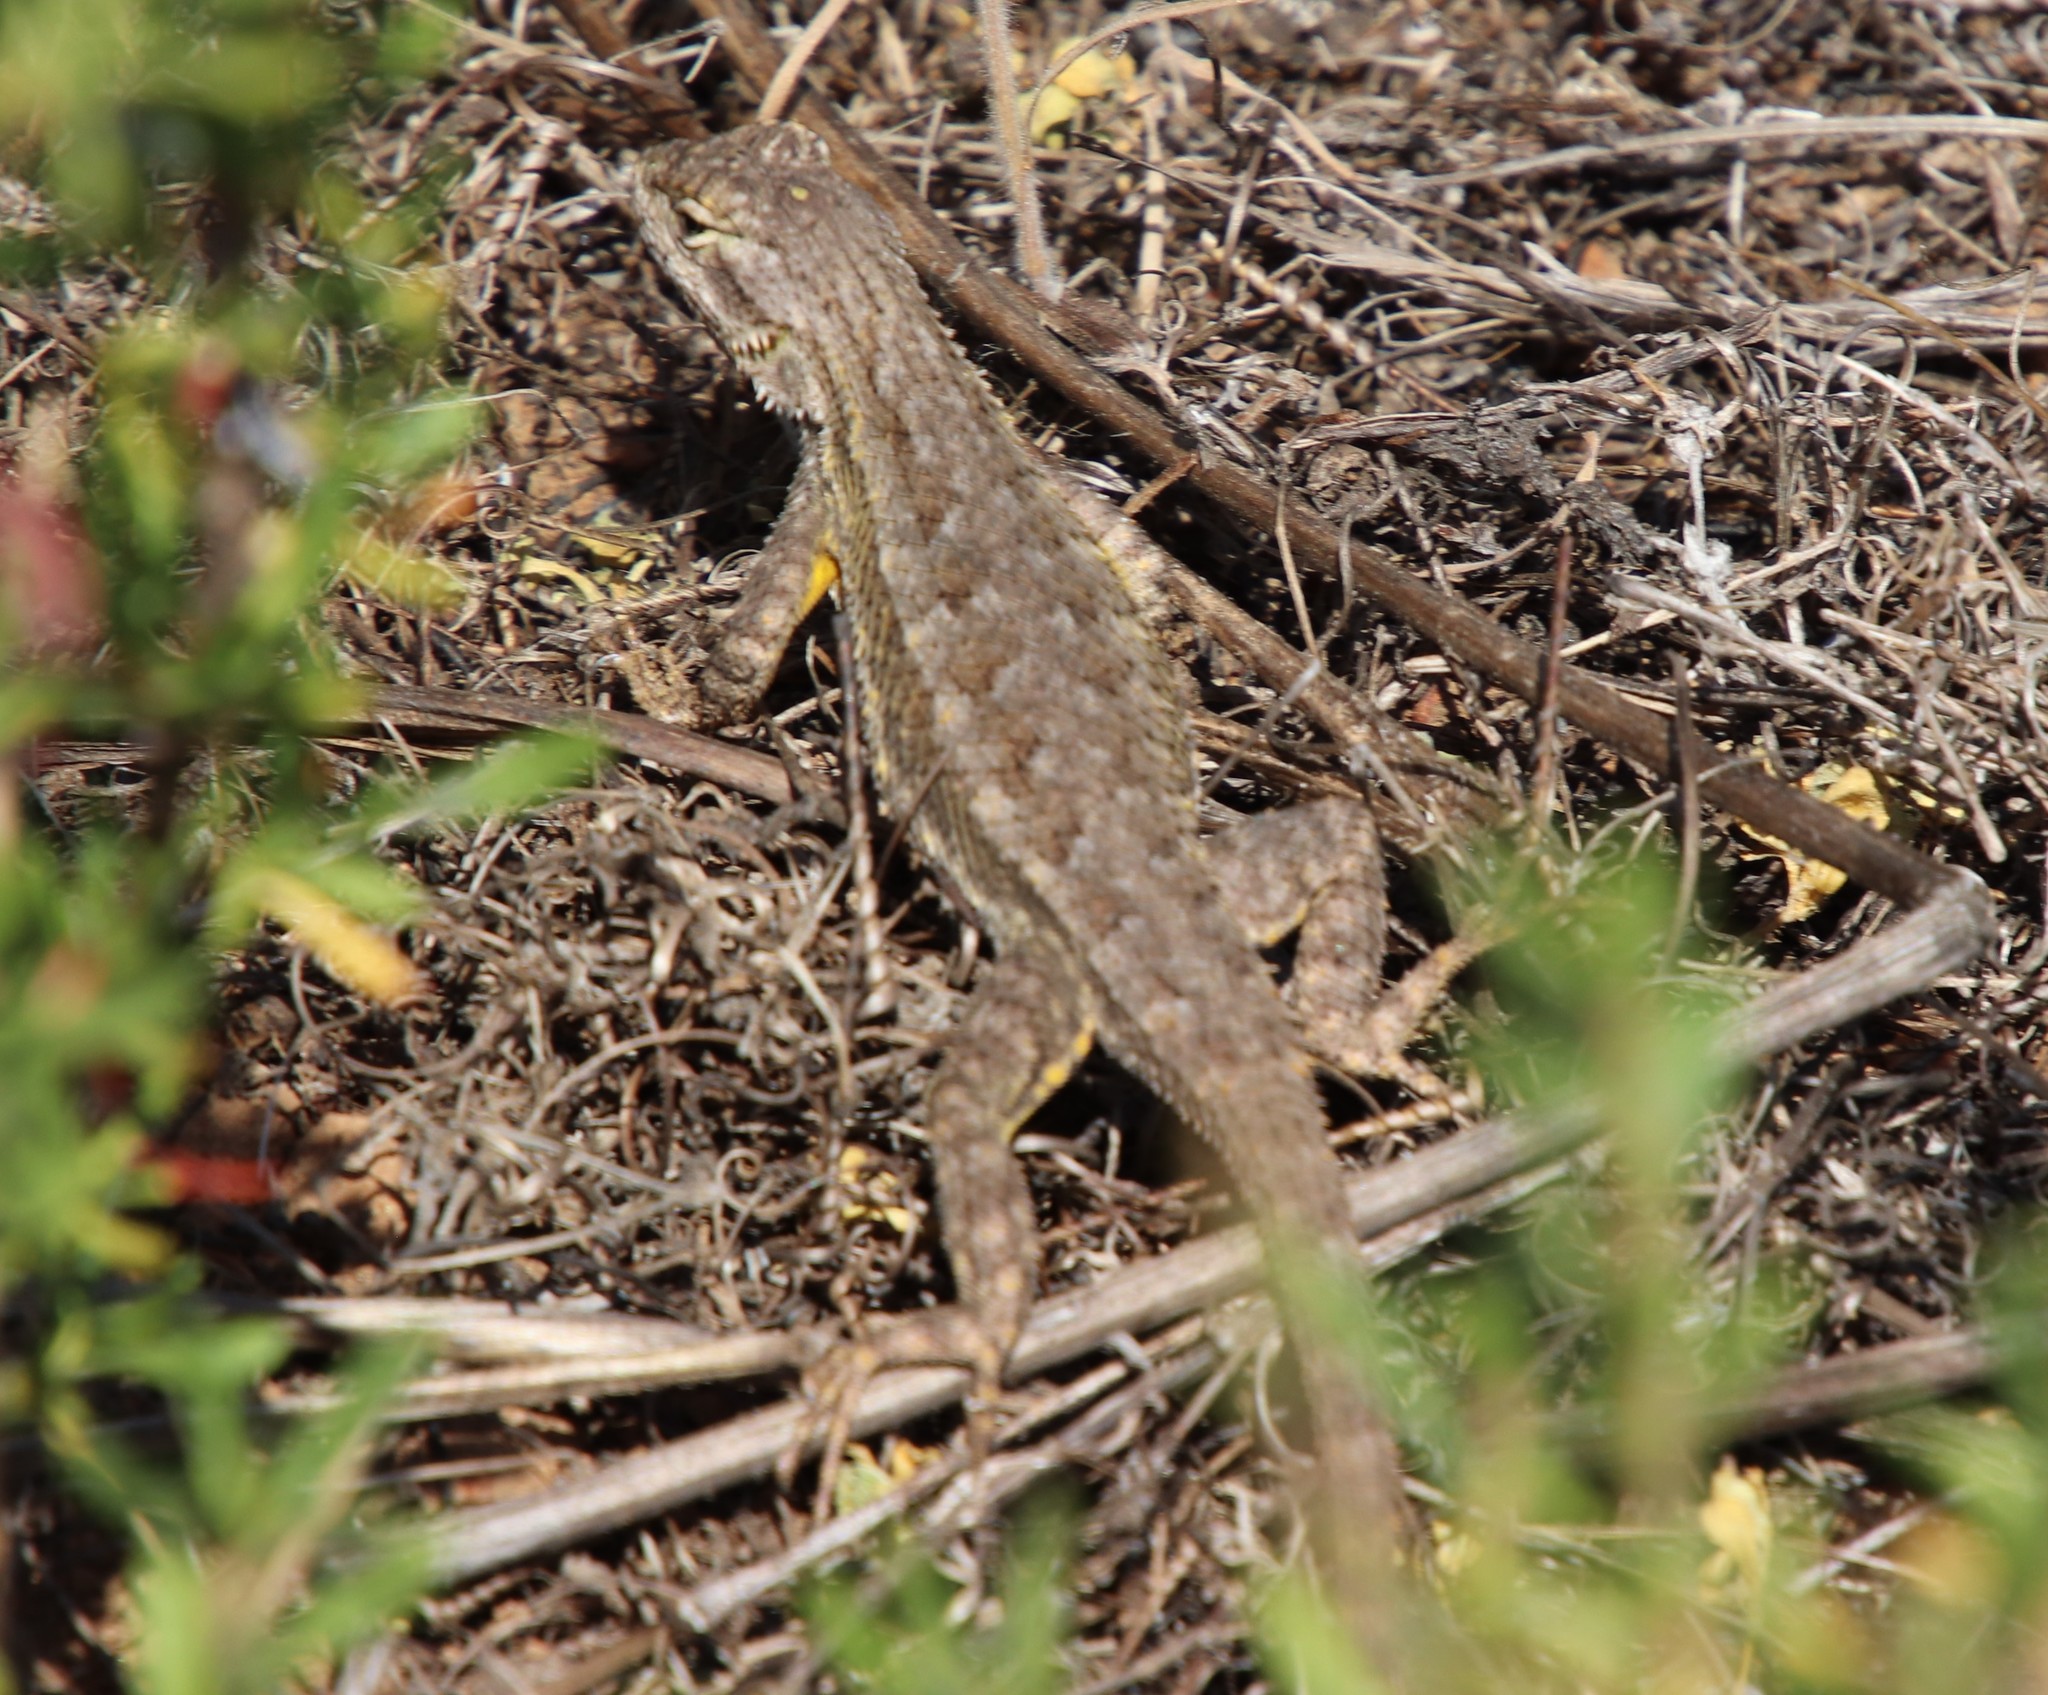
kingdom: Animalia
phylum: Chordata
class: Squamata
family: Phrynosomatidae
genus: Sceloporus
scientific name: Sceloporus occidentalis
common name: Western fence lizard
